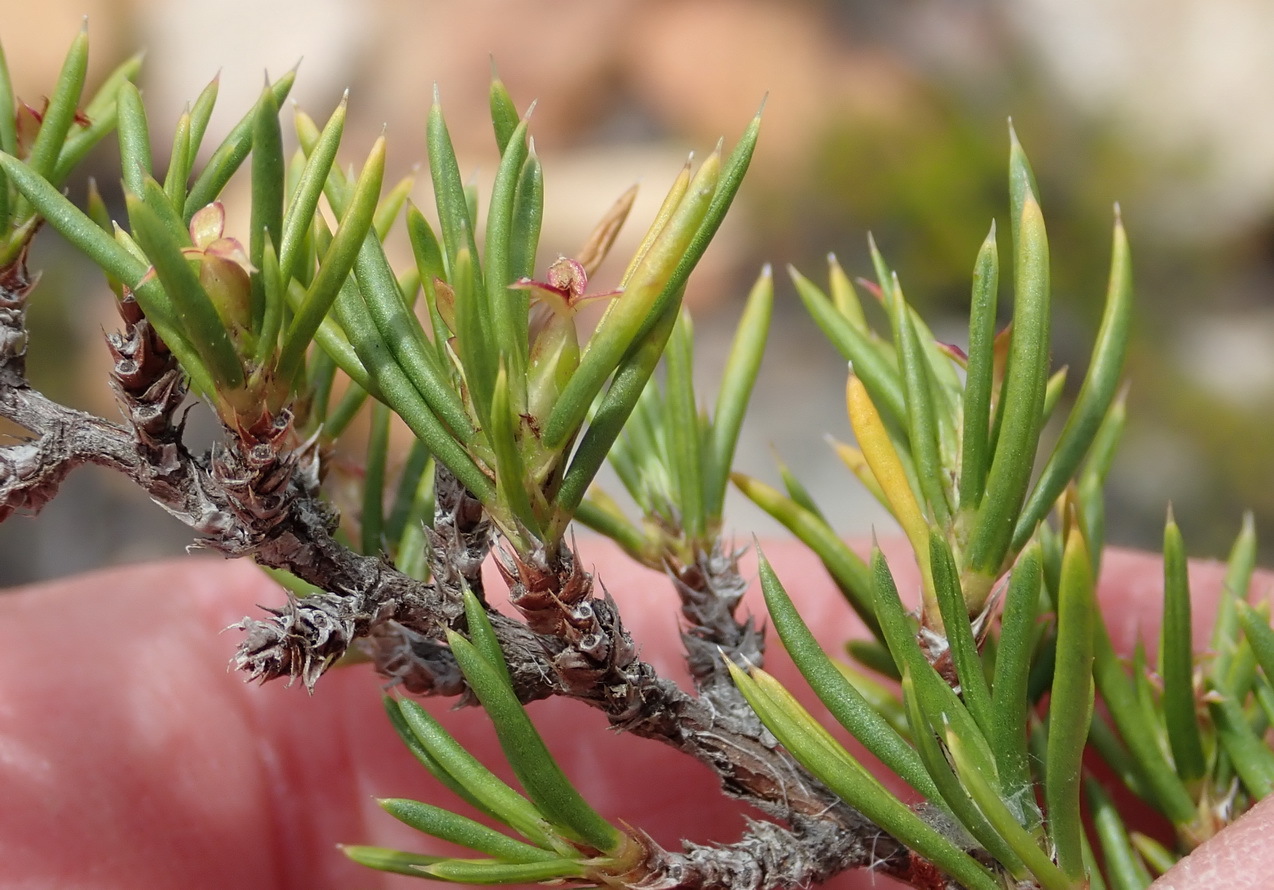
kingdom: Plantae
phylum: Tracheophyta
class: Magnoliopsida
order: Rosales
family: Rosaceae
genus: Cliffortia
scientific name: Cliffortia neglecta
